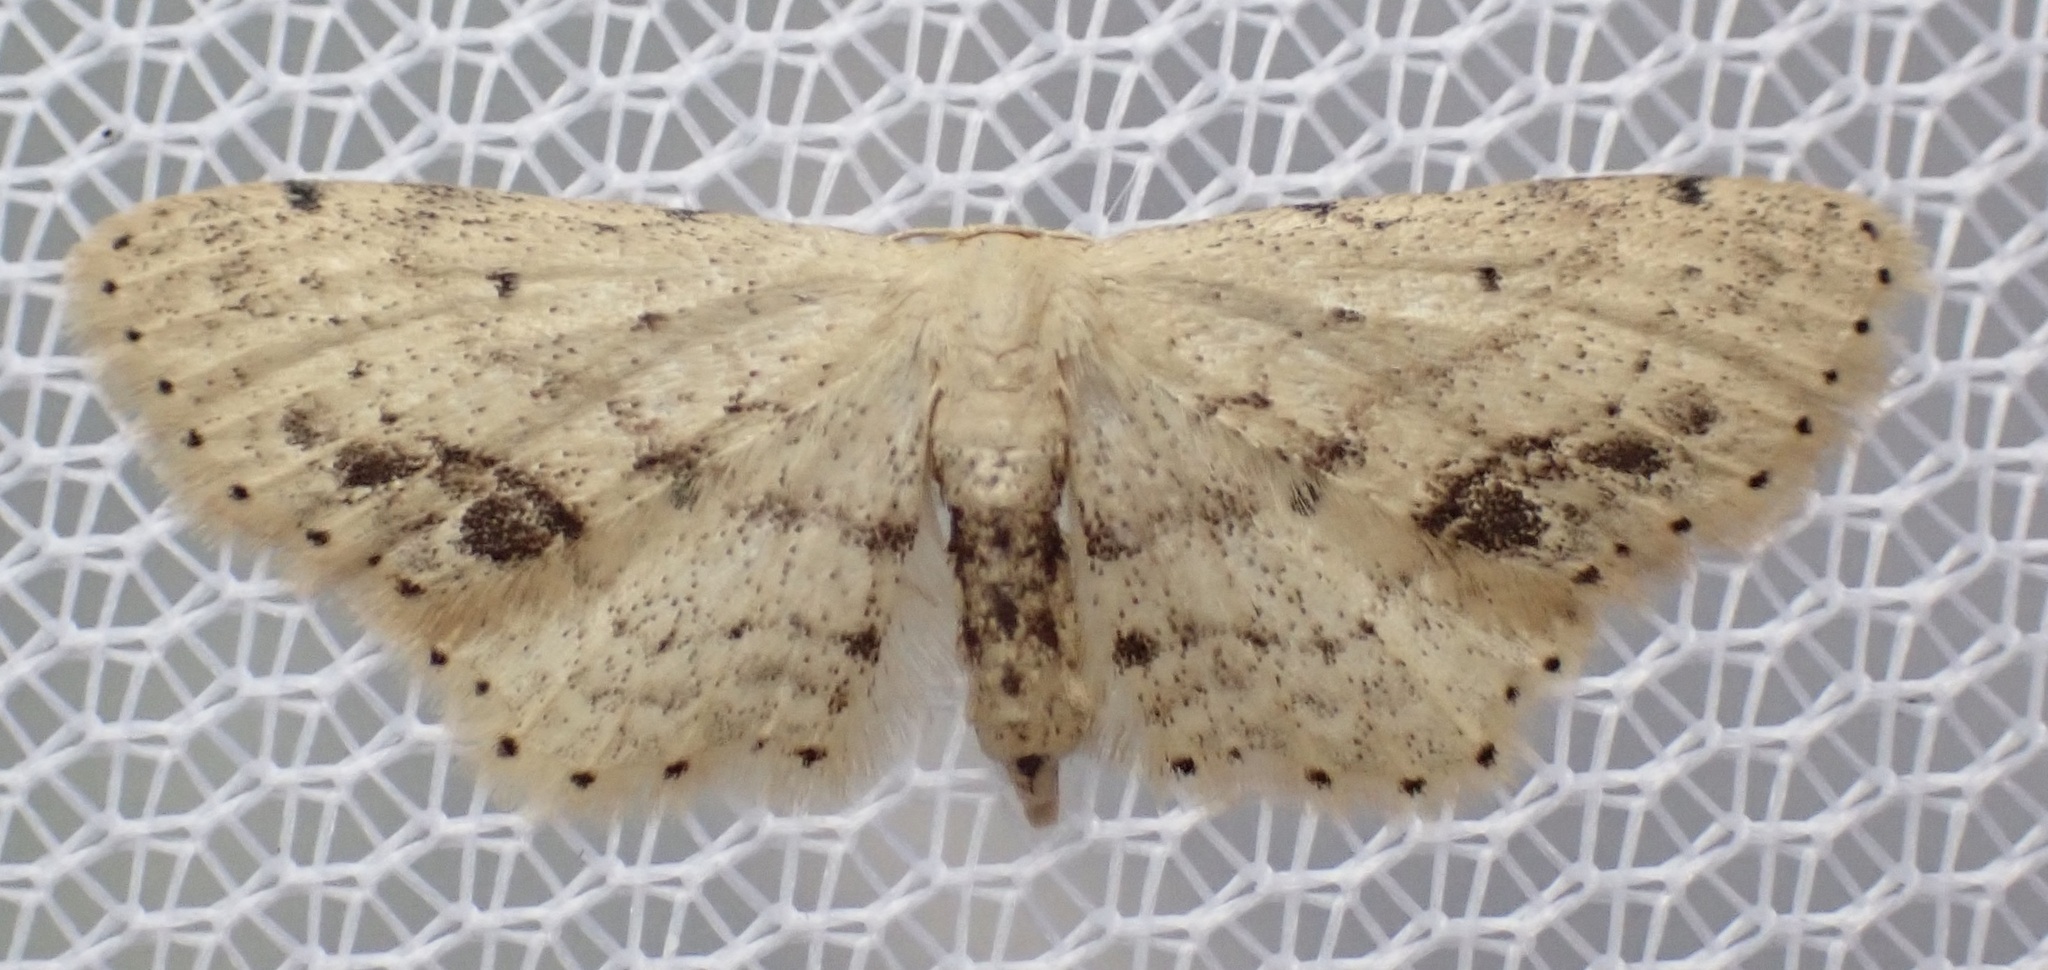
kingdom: Animalia
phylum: Arthropoda
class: Insecta
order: Lepidoptera
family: Geometridae
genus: Idaea
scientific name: Idaea dimidiata
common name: Single-dotted wave
